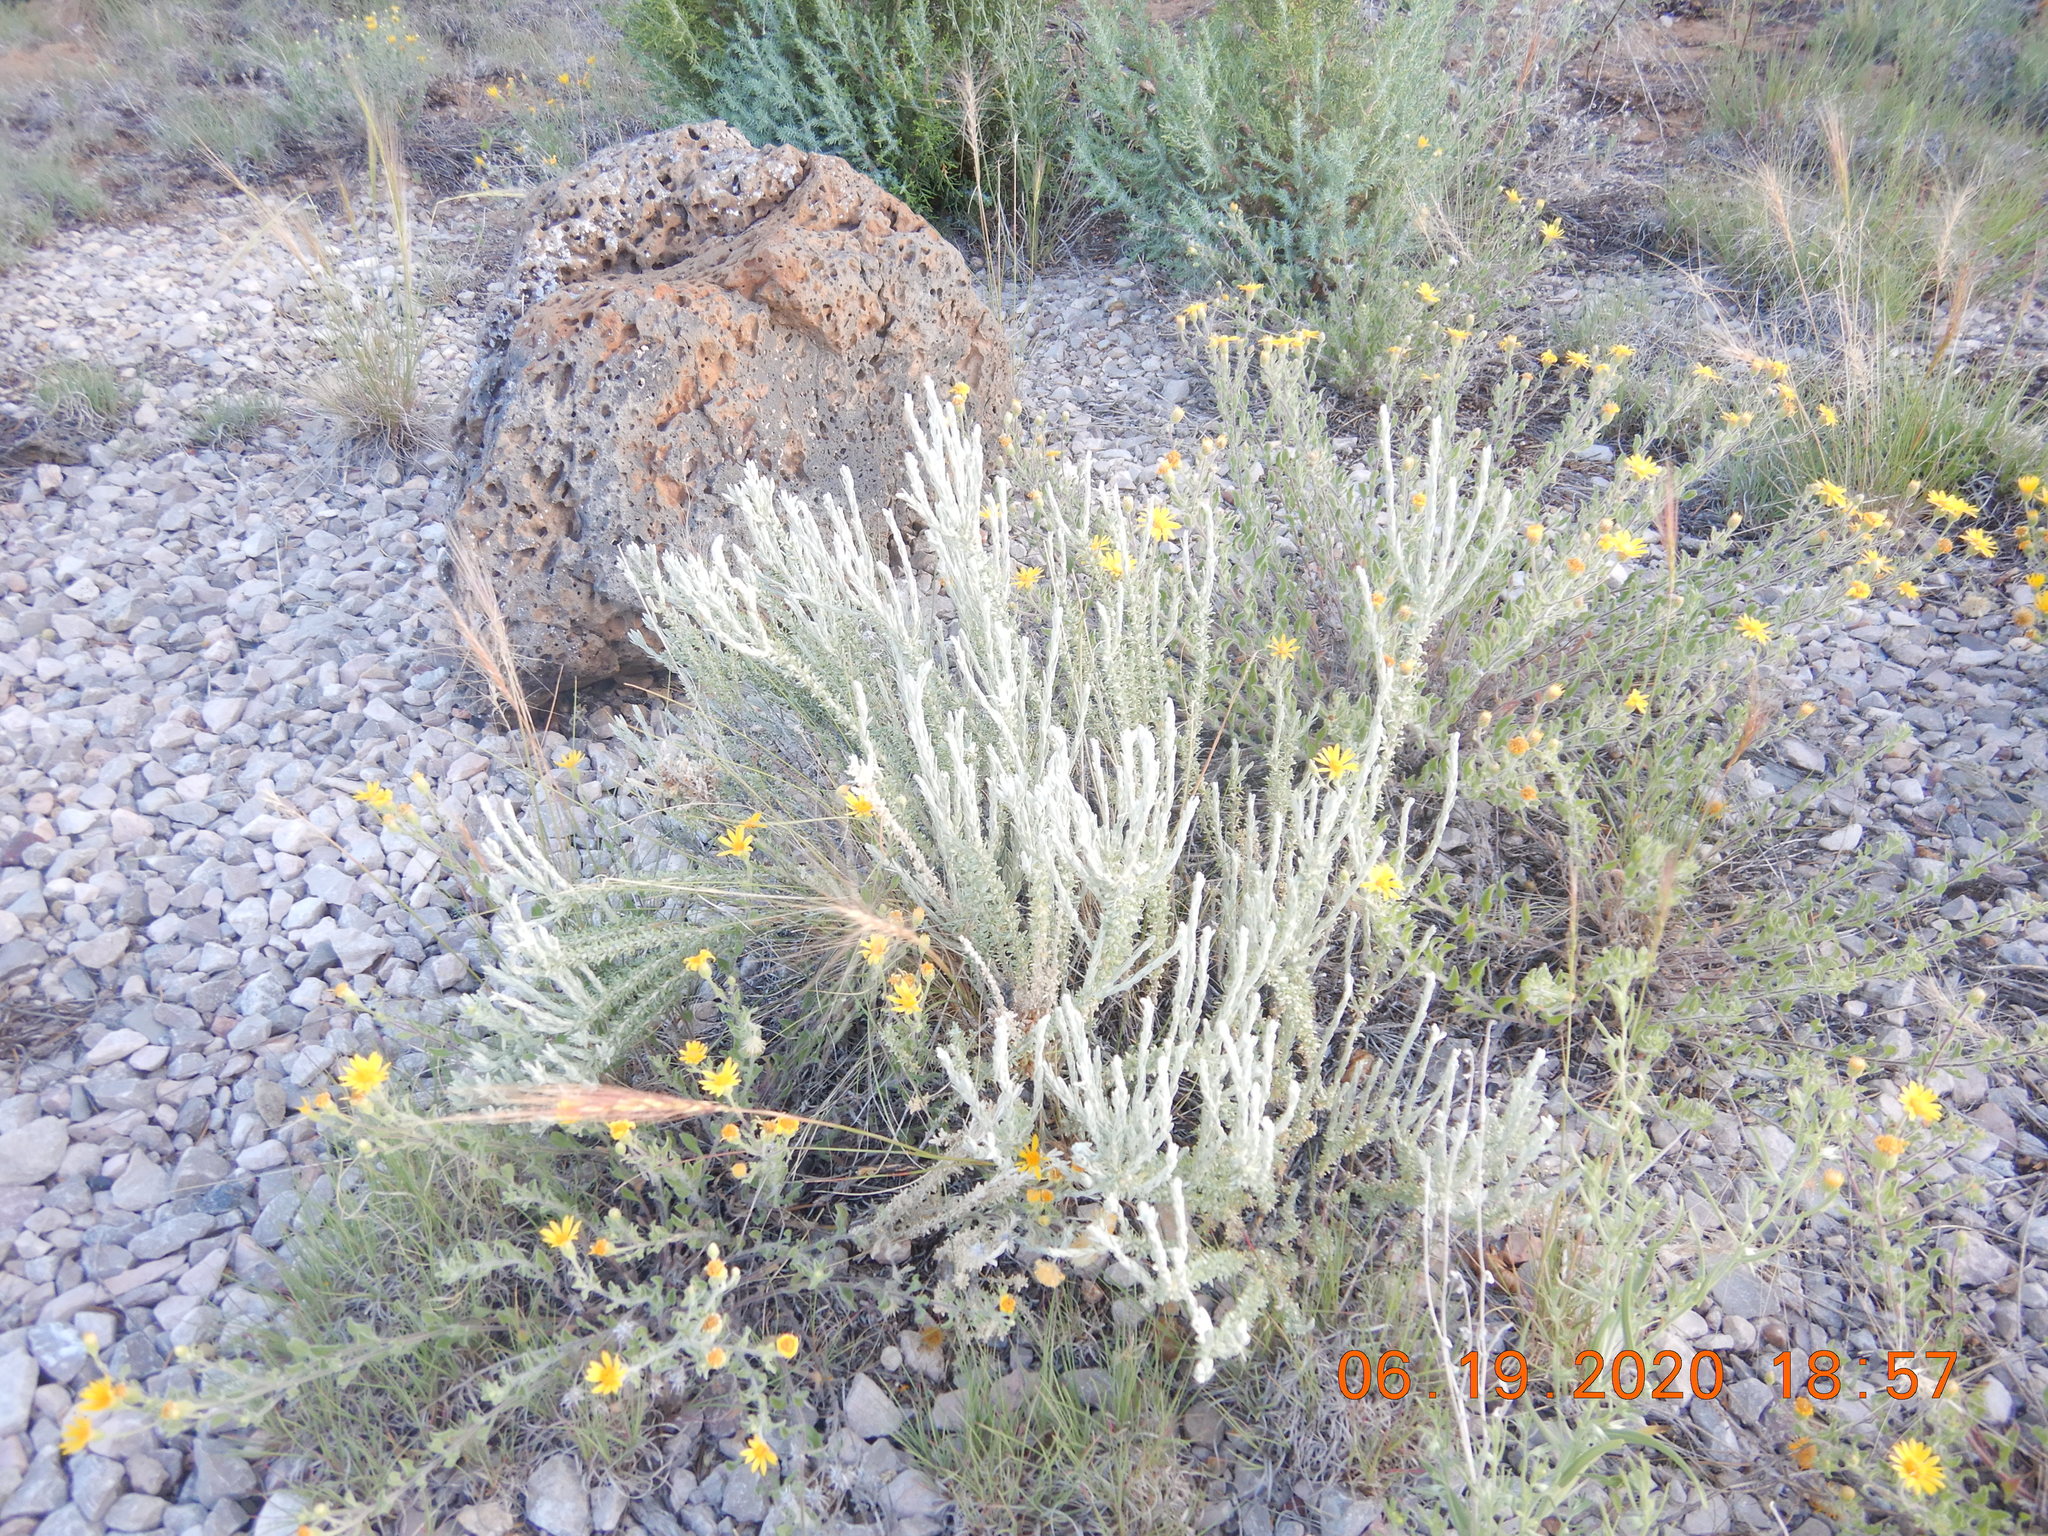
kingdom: Plantae
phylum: Tracheophyta
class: Liliopsida
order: Poales
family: Poaceae
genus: Eriocoma
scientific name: Eriocoma hymenoides
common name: Indian mountain ricegrass
